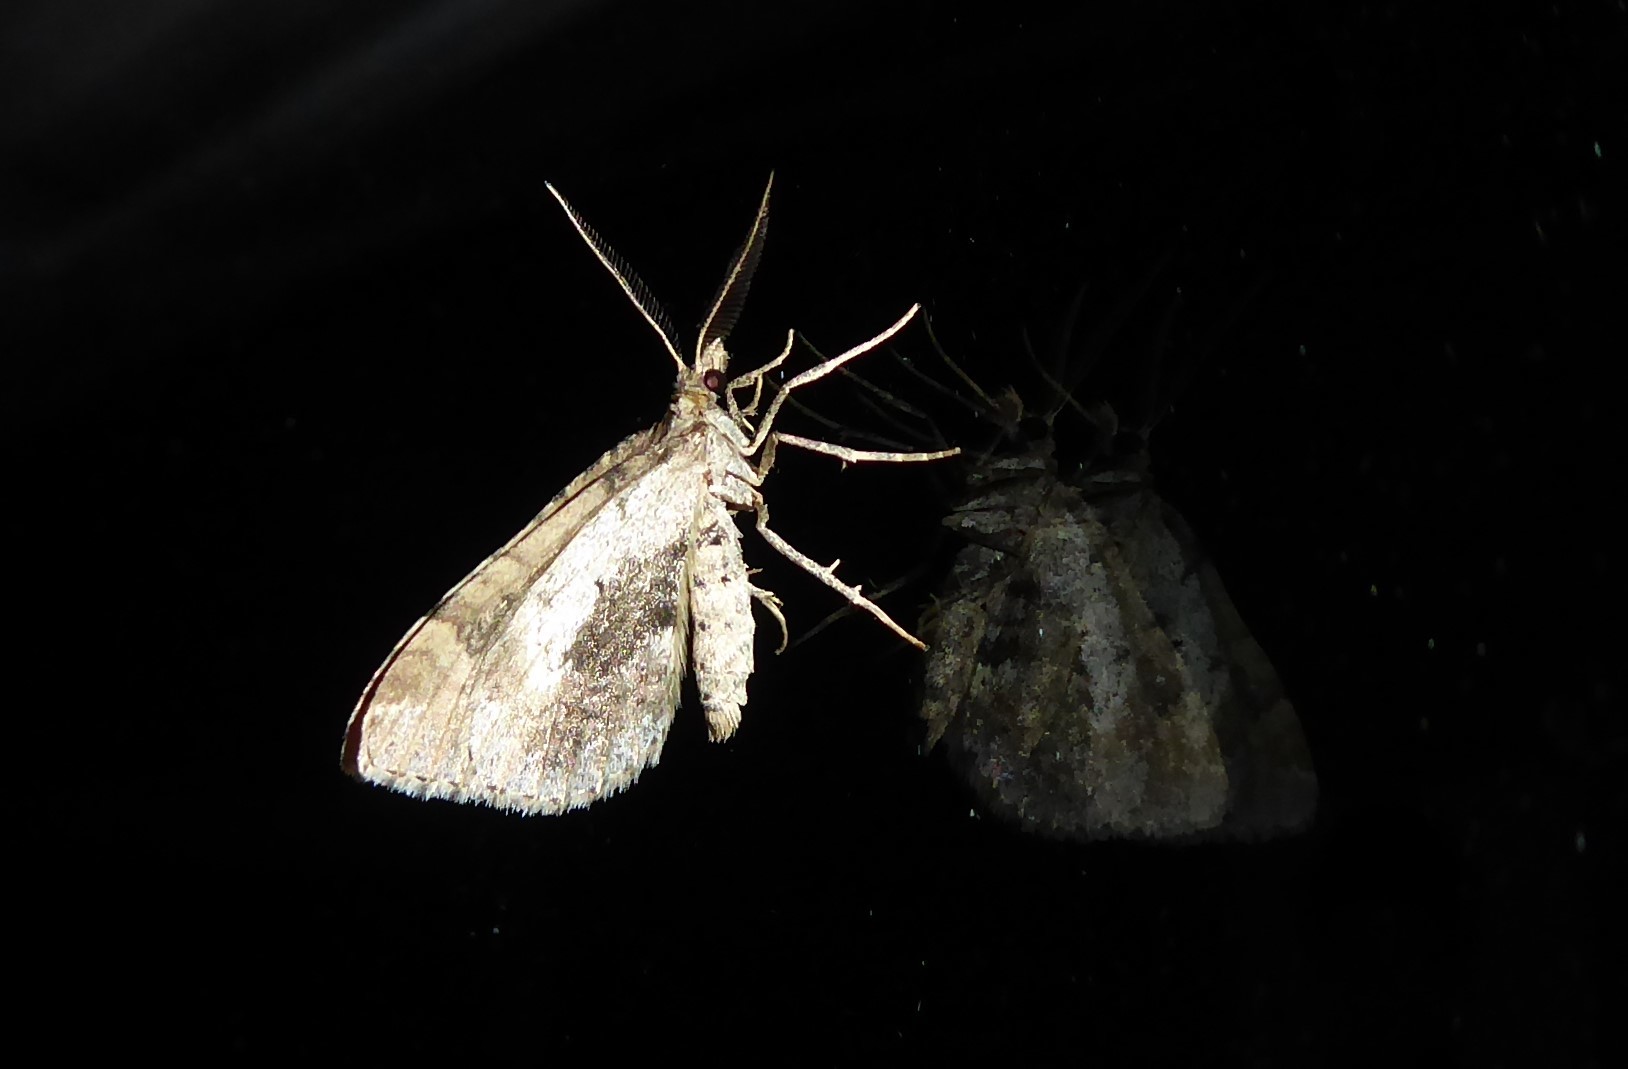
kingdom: Animalia
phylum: Arthropoda
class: Insecta
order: Lepidoptera
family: Geometridae
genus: Asaphodes
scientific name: Asaphodes aegrota
